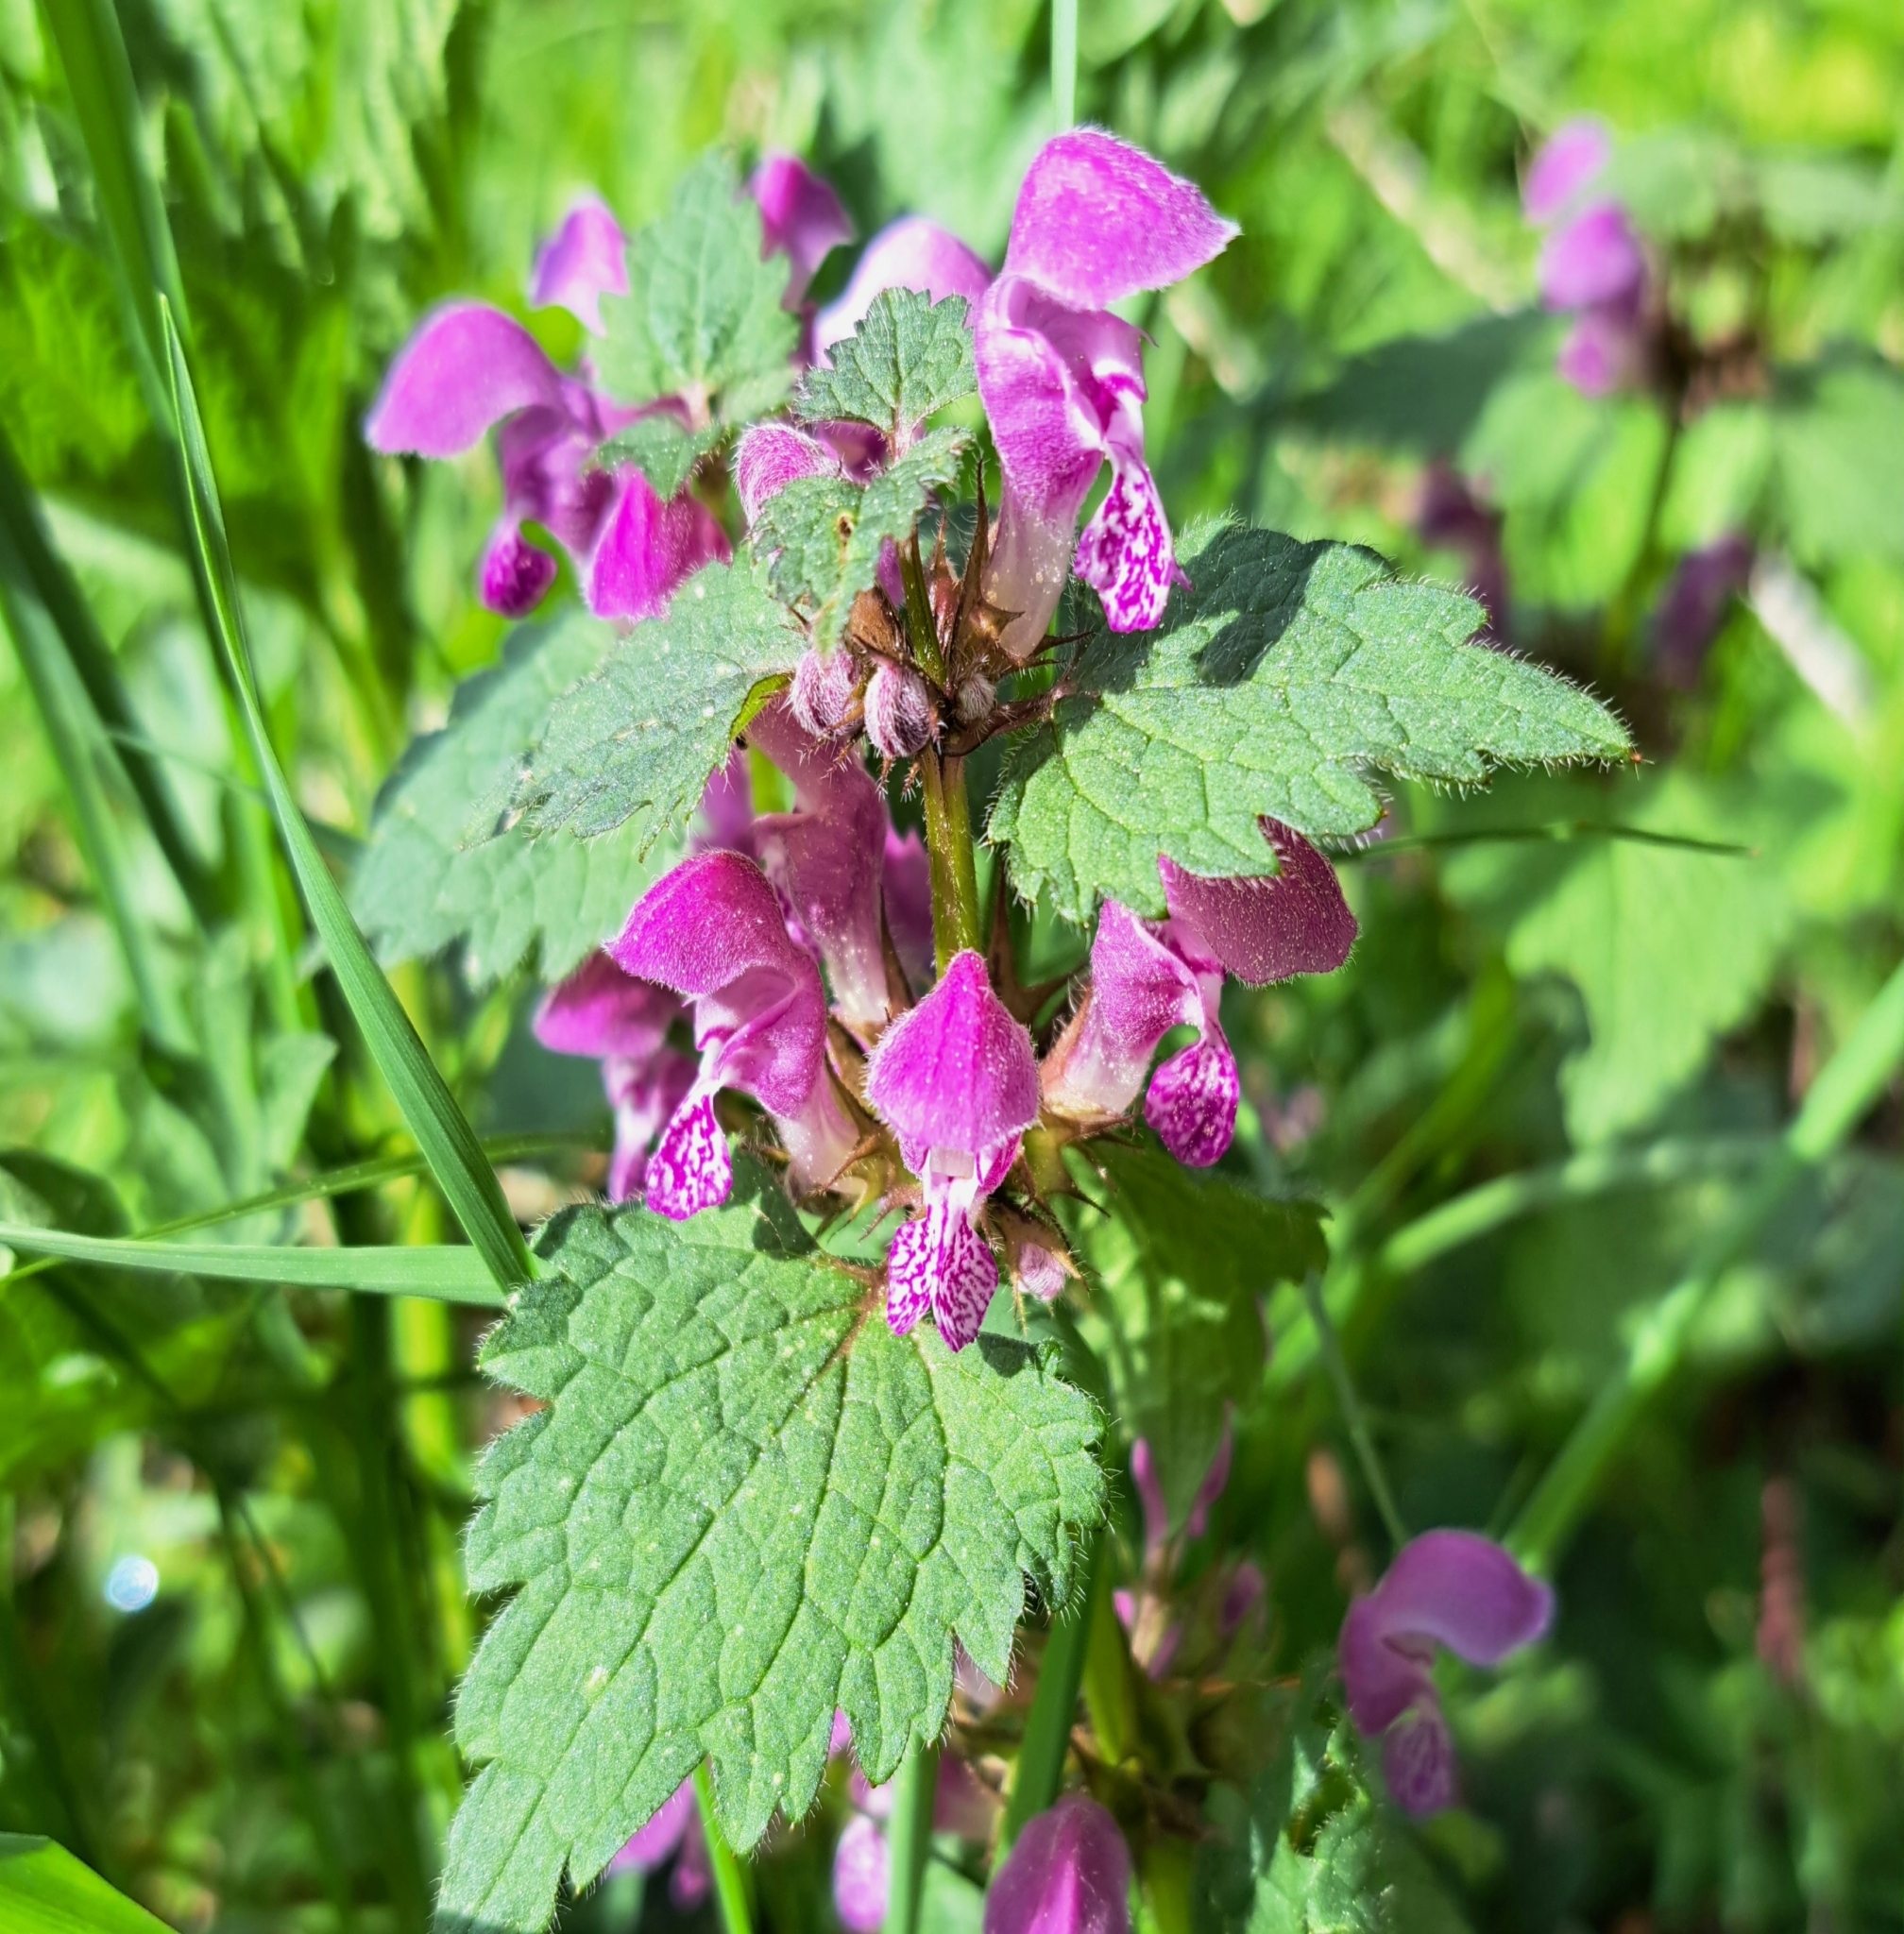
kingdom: Plantae
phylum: Tracheophyta
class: Magnoliopsida
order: Lamiales
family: Lamiaceae
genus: Lamium
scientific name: Lamium maculatum
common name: Spotted dead-nettle
